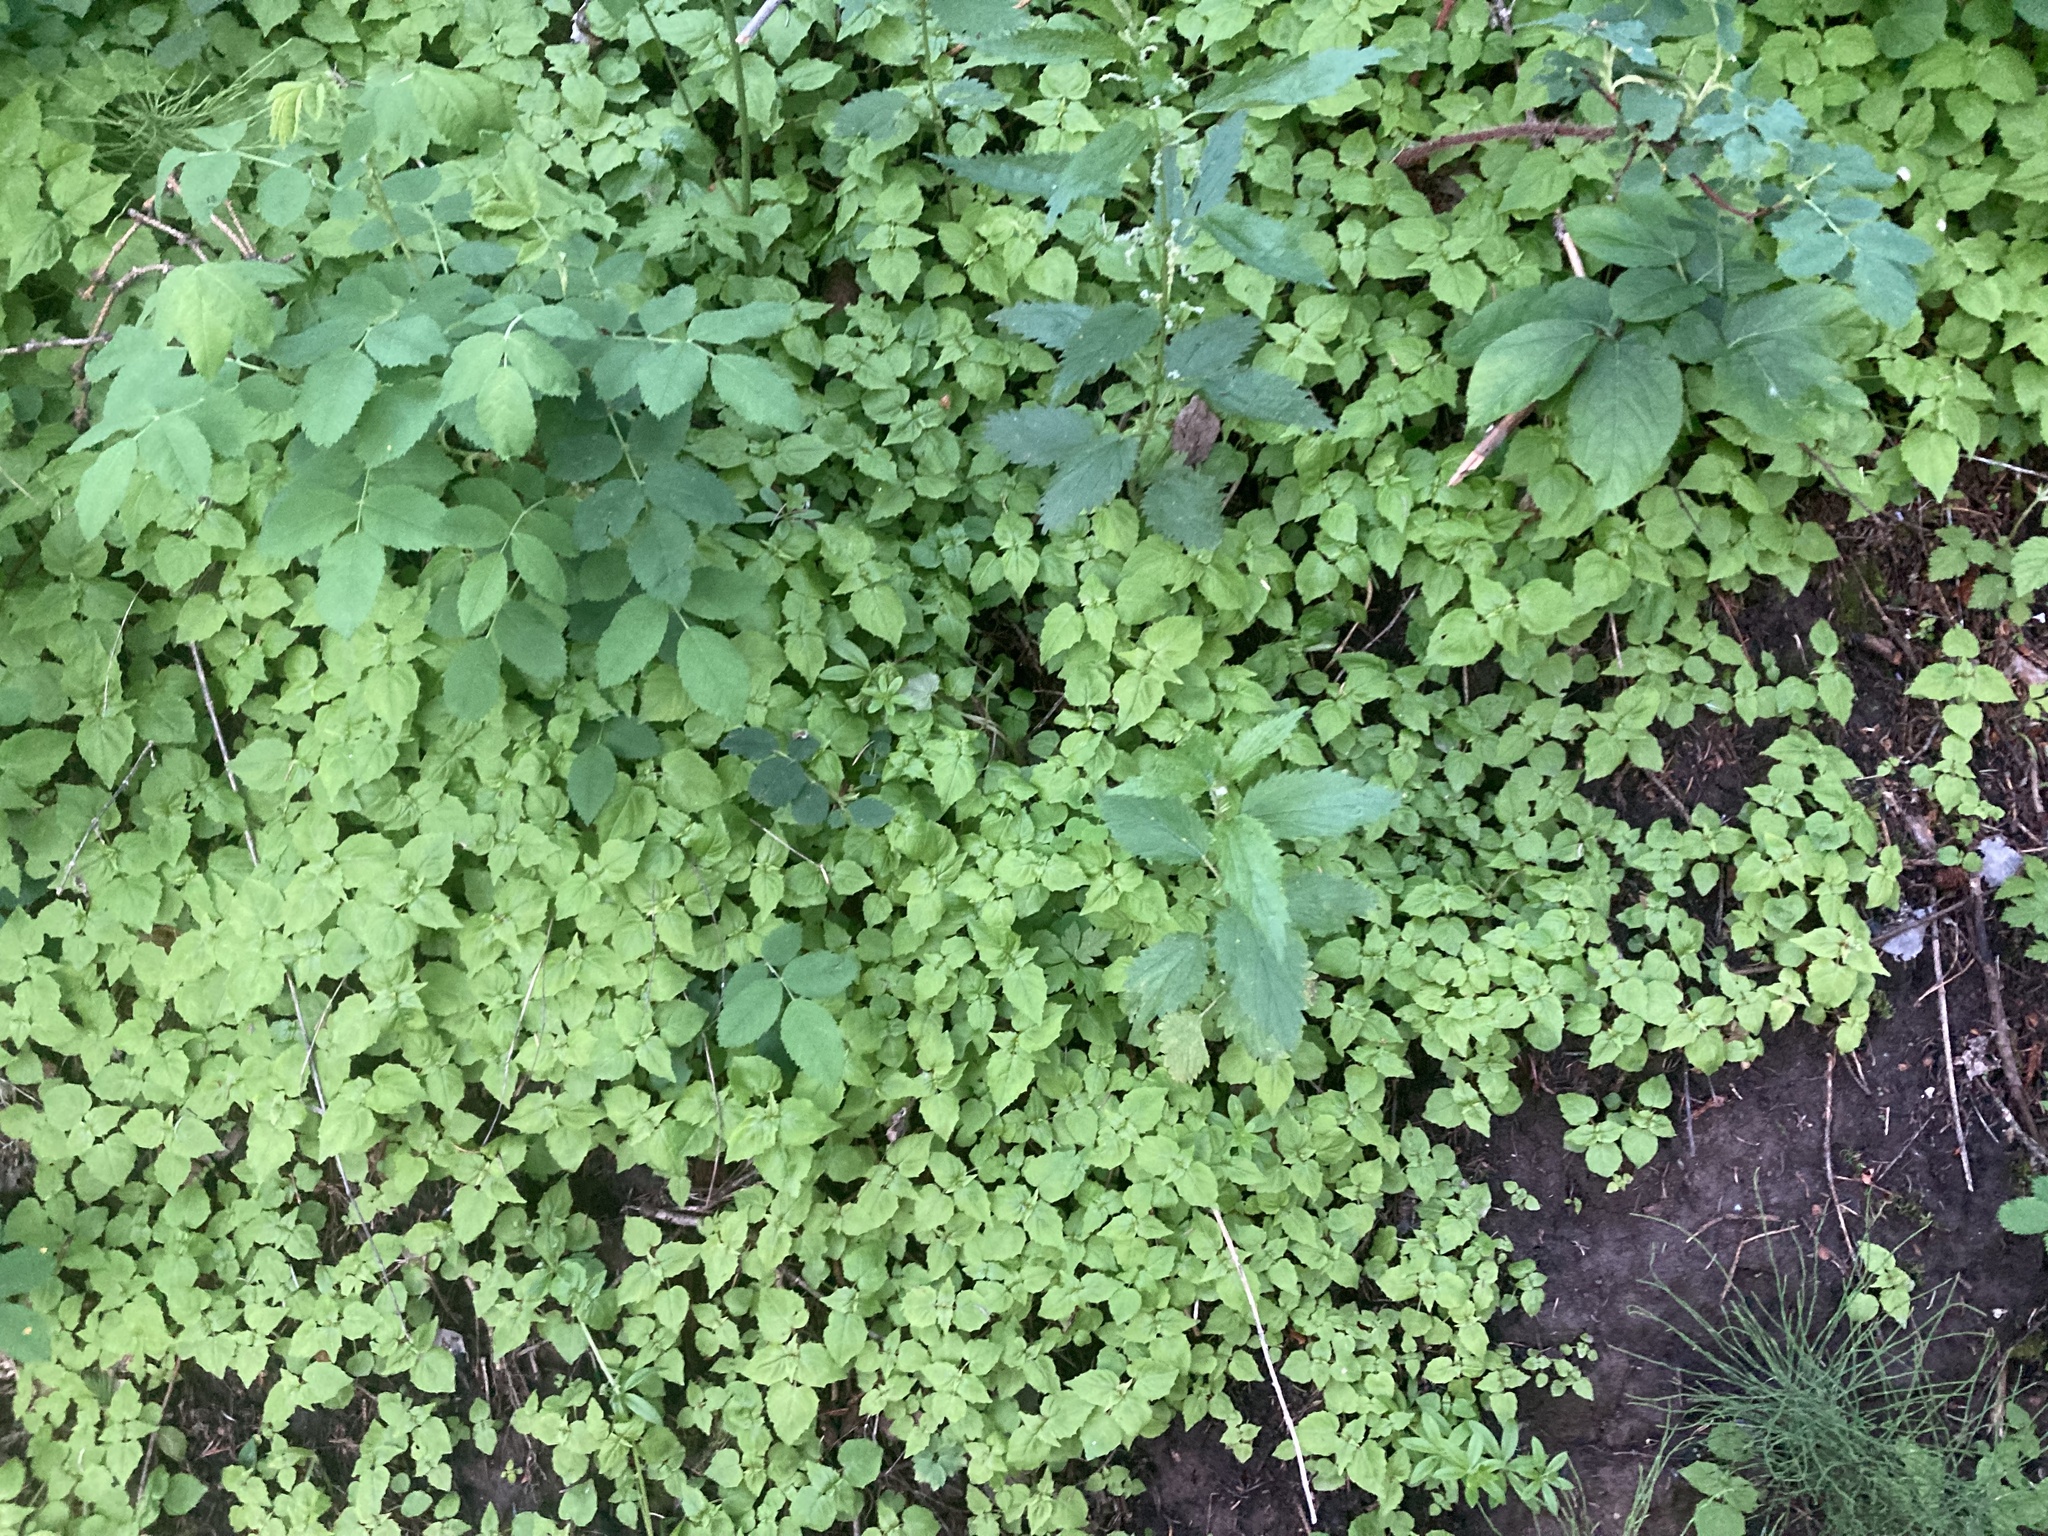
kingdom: Plantae
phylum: Tracheophyta
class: Magnoliopsida
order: Myrtales
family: Onagraceae
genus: Circaea
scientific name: Circaea alpina
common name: Alpine enchanter's-nightshade
